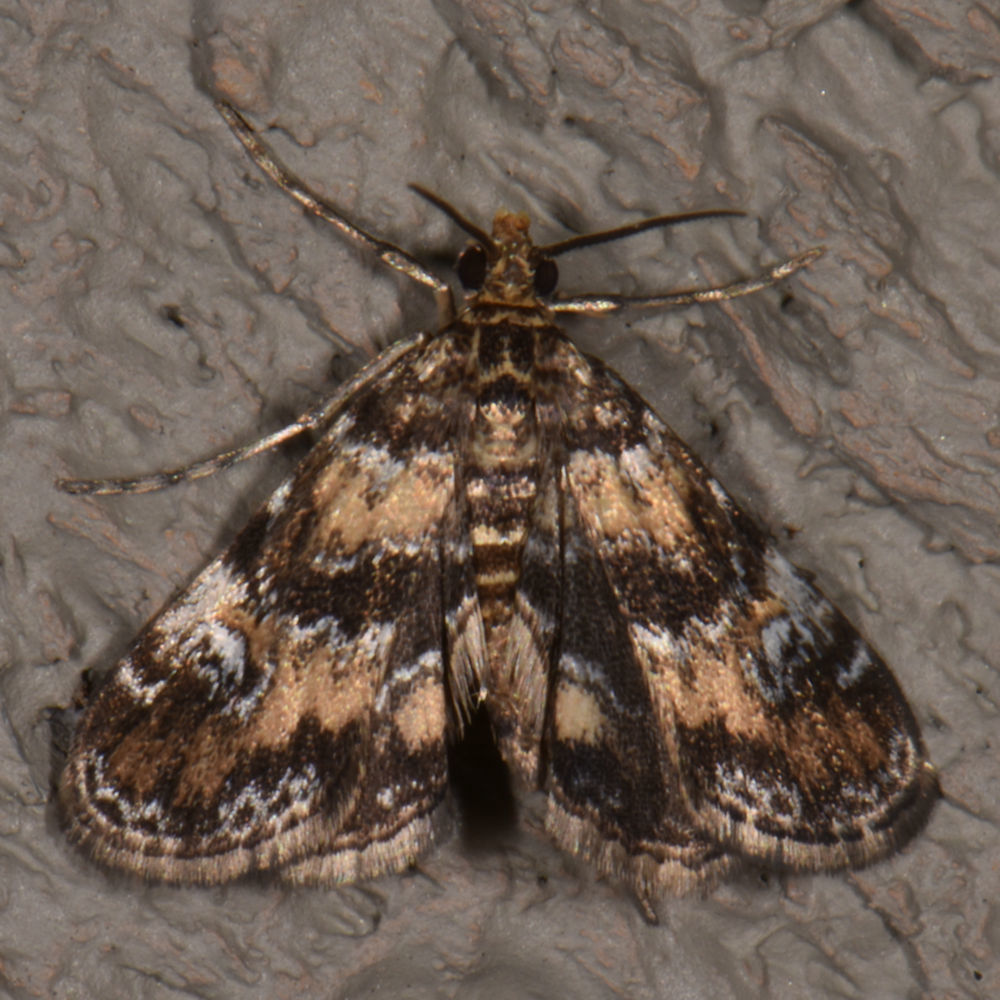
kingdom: Animalia
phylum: Arthropoda
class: Insecta
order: Lepidoptera
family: Crambidae
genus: Elophila
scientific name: Elophila obliteralis
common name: Waterlily leafcutter moth
